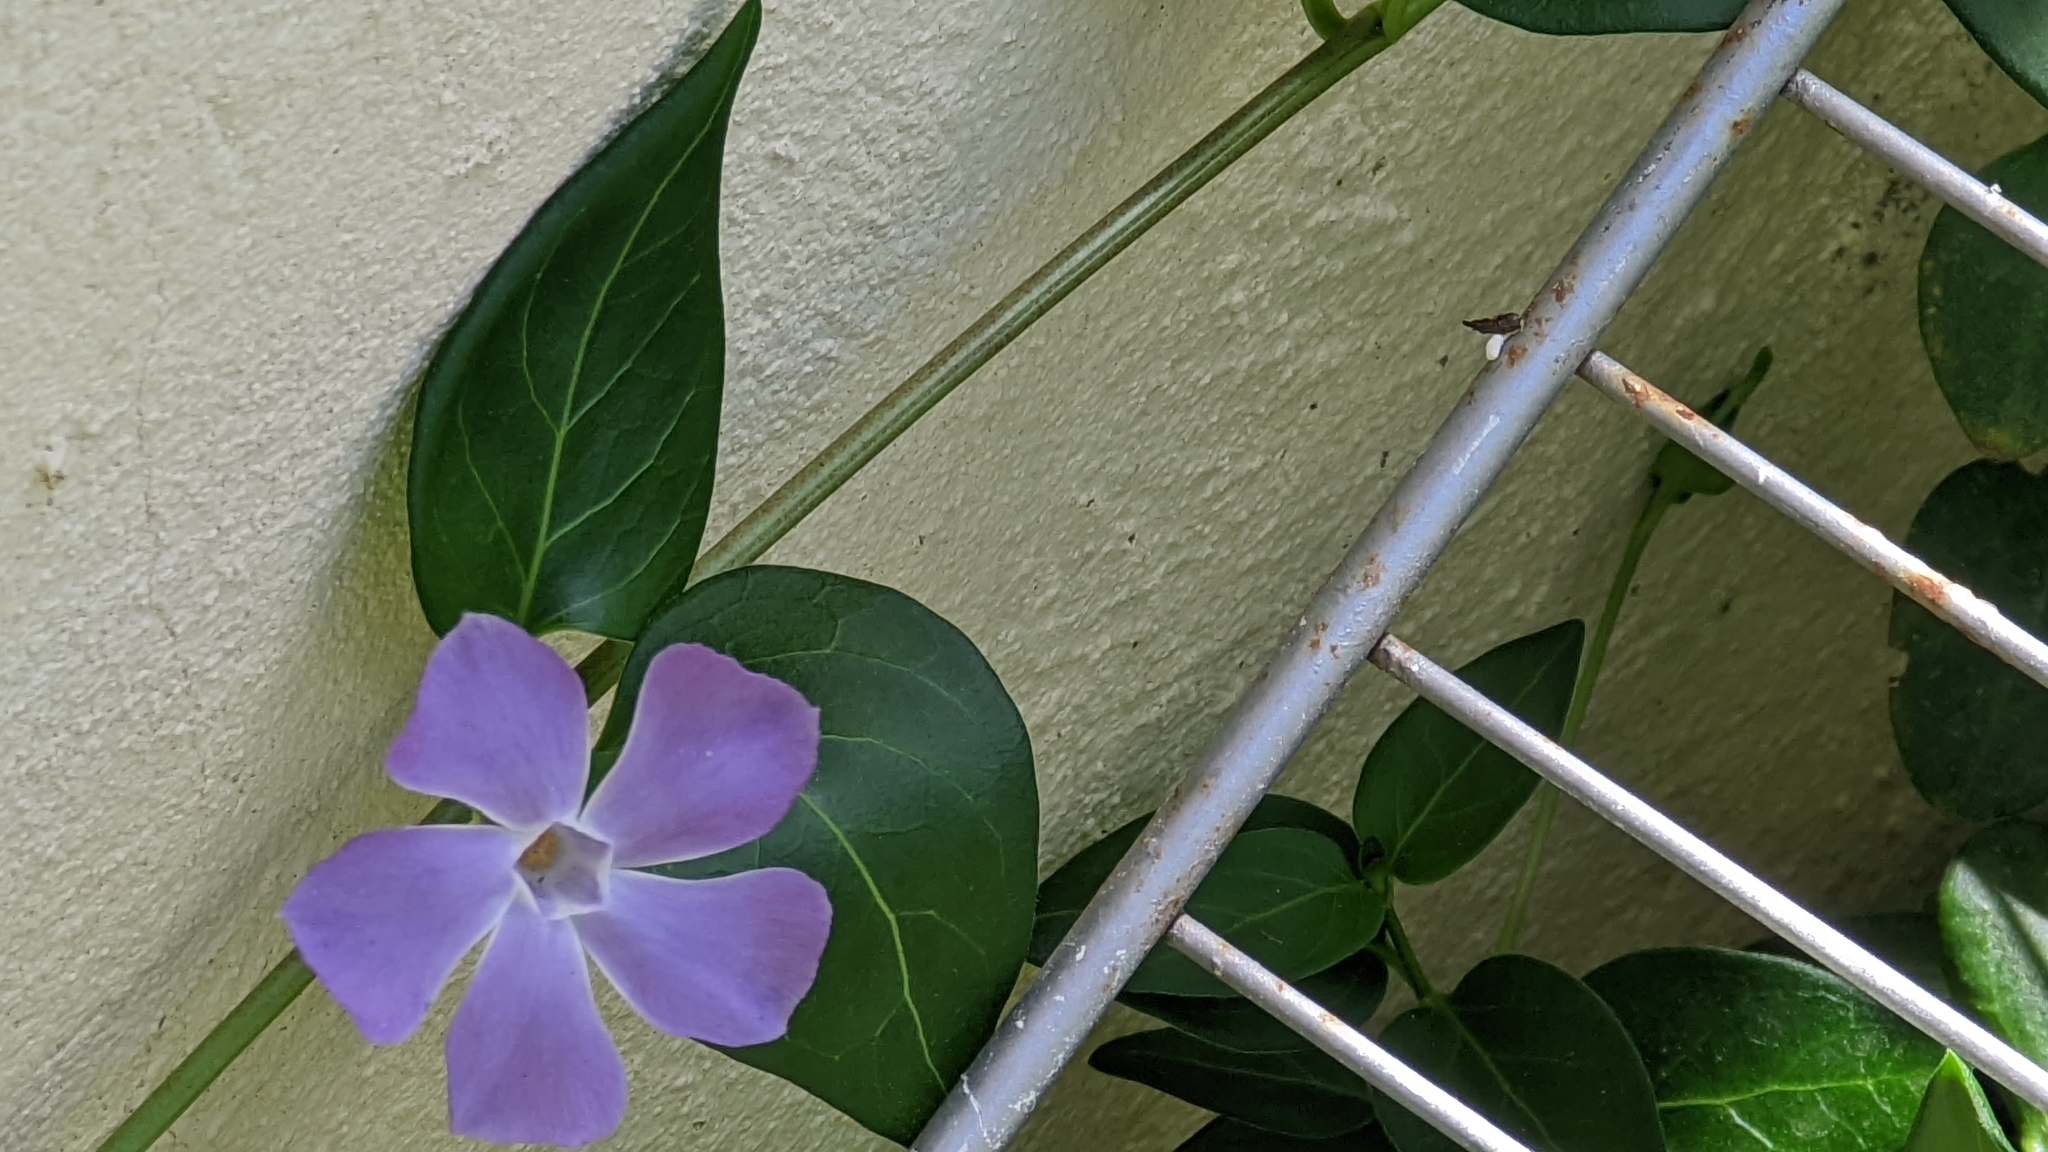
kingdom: Plantae
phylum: Tracheophyta
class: Magnoliopsida
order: Gentianales
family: Apocynaceae
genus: Vinca
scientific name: Vinca major
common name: Greater periwinkle
